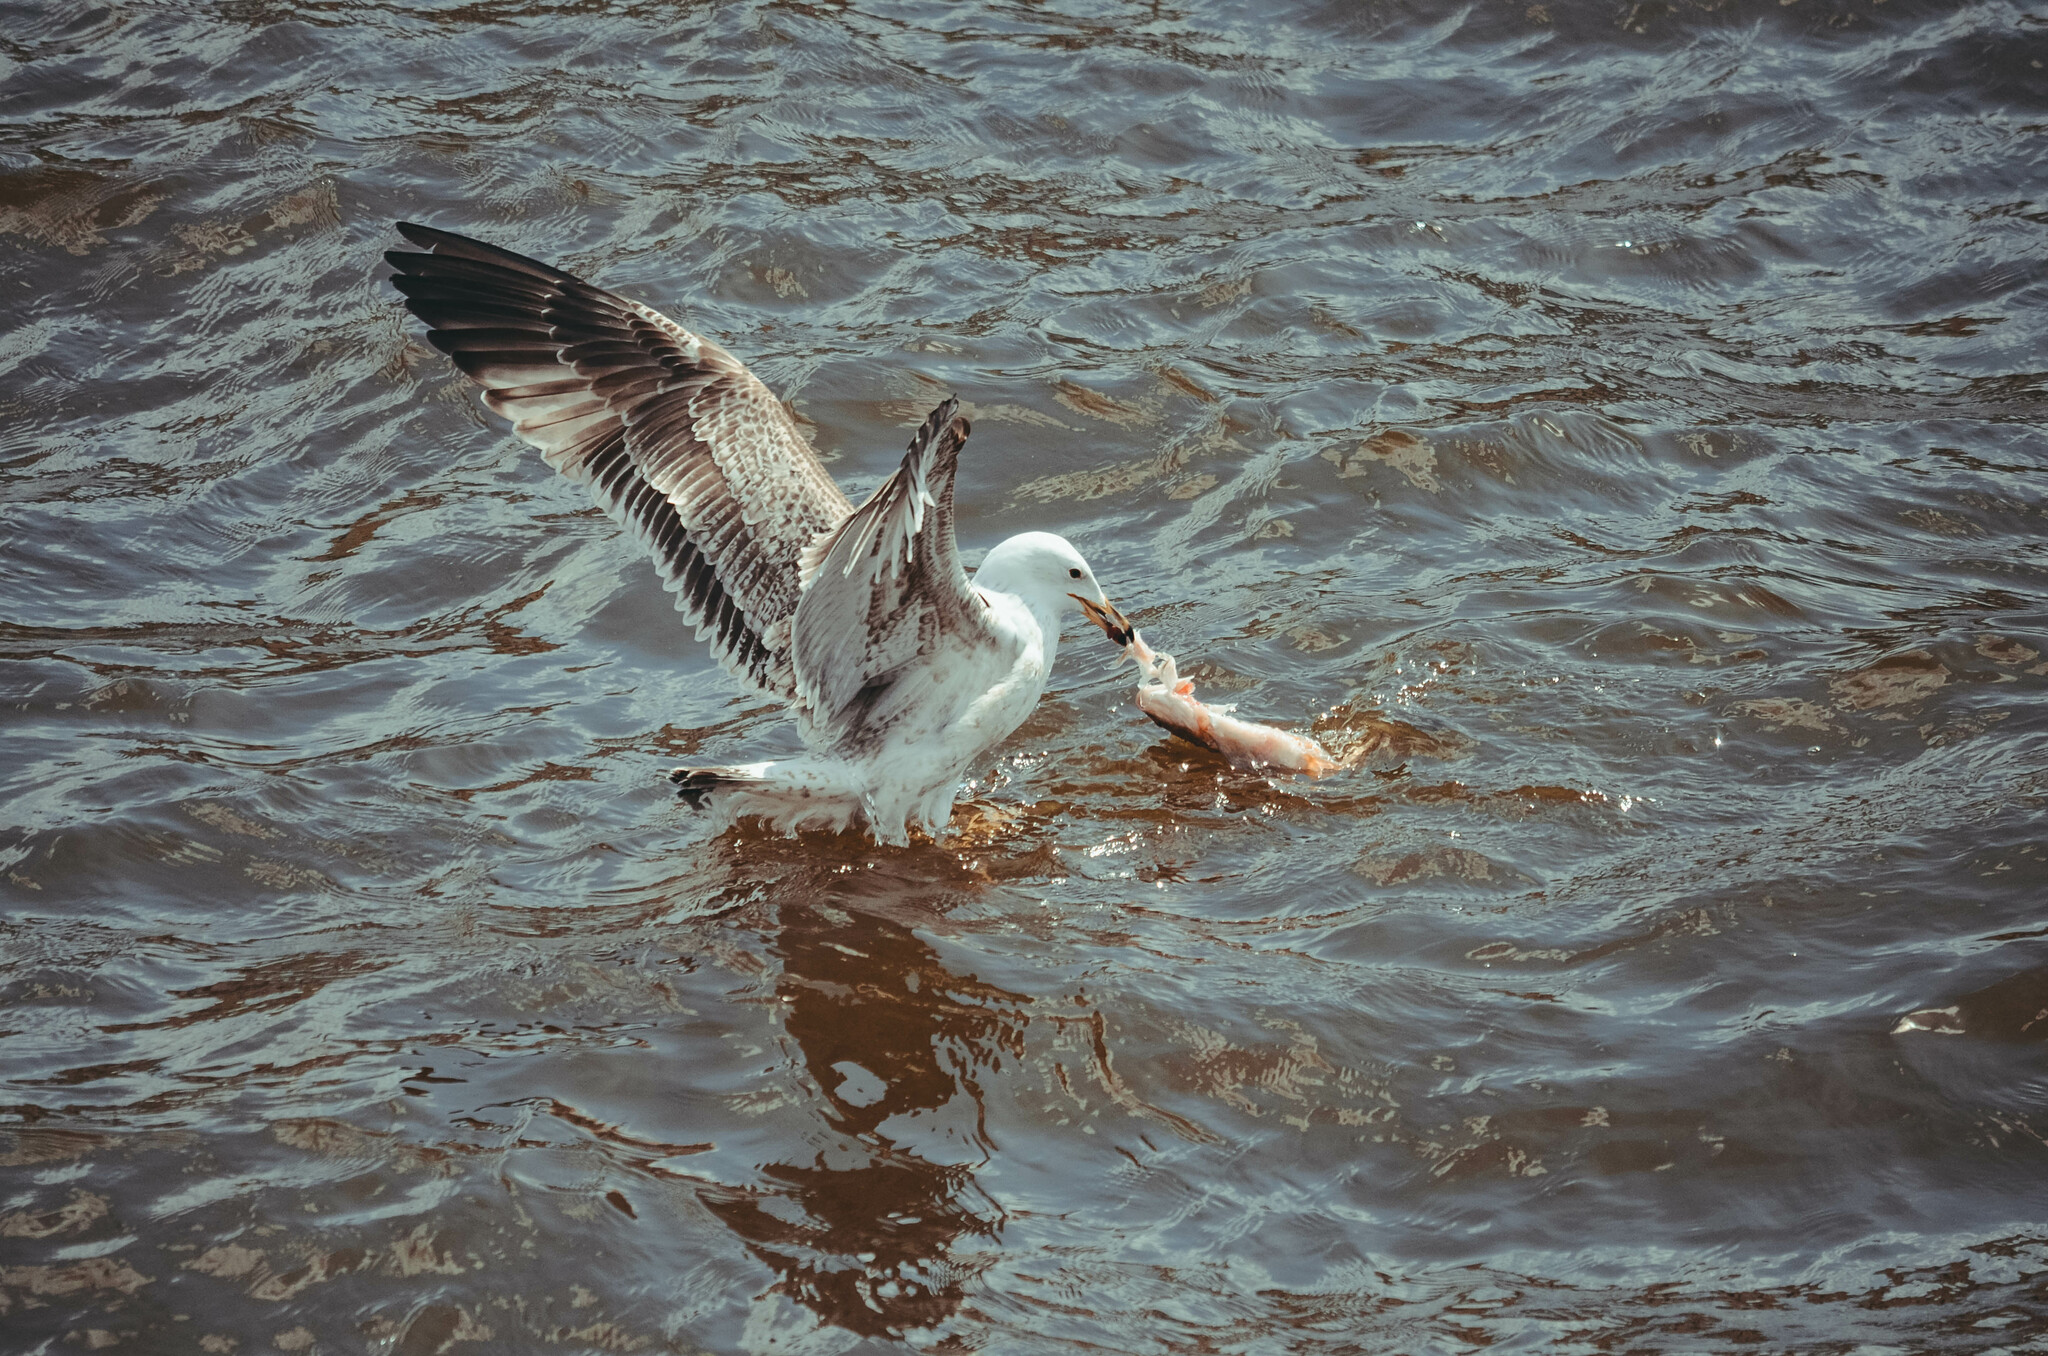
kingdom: Animalia
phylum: Chordata
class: Aves
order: Charadriiformes
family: Laridae
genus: Larus
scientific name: Larus cachinnans
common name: Caspian gull
